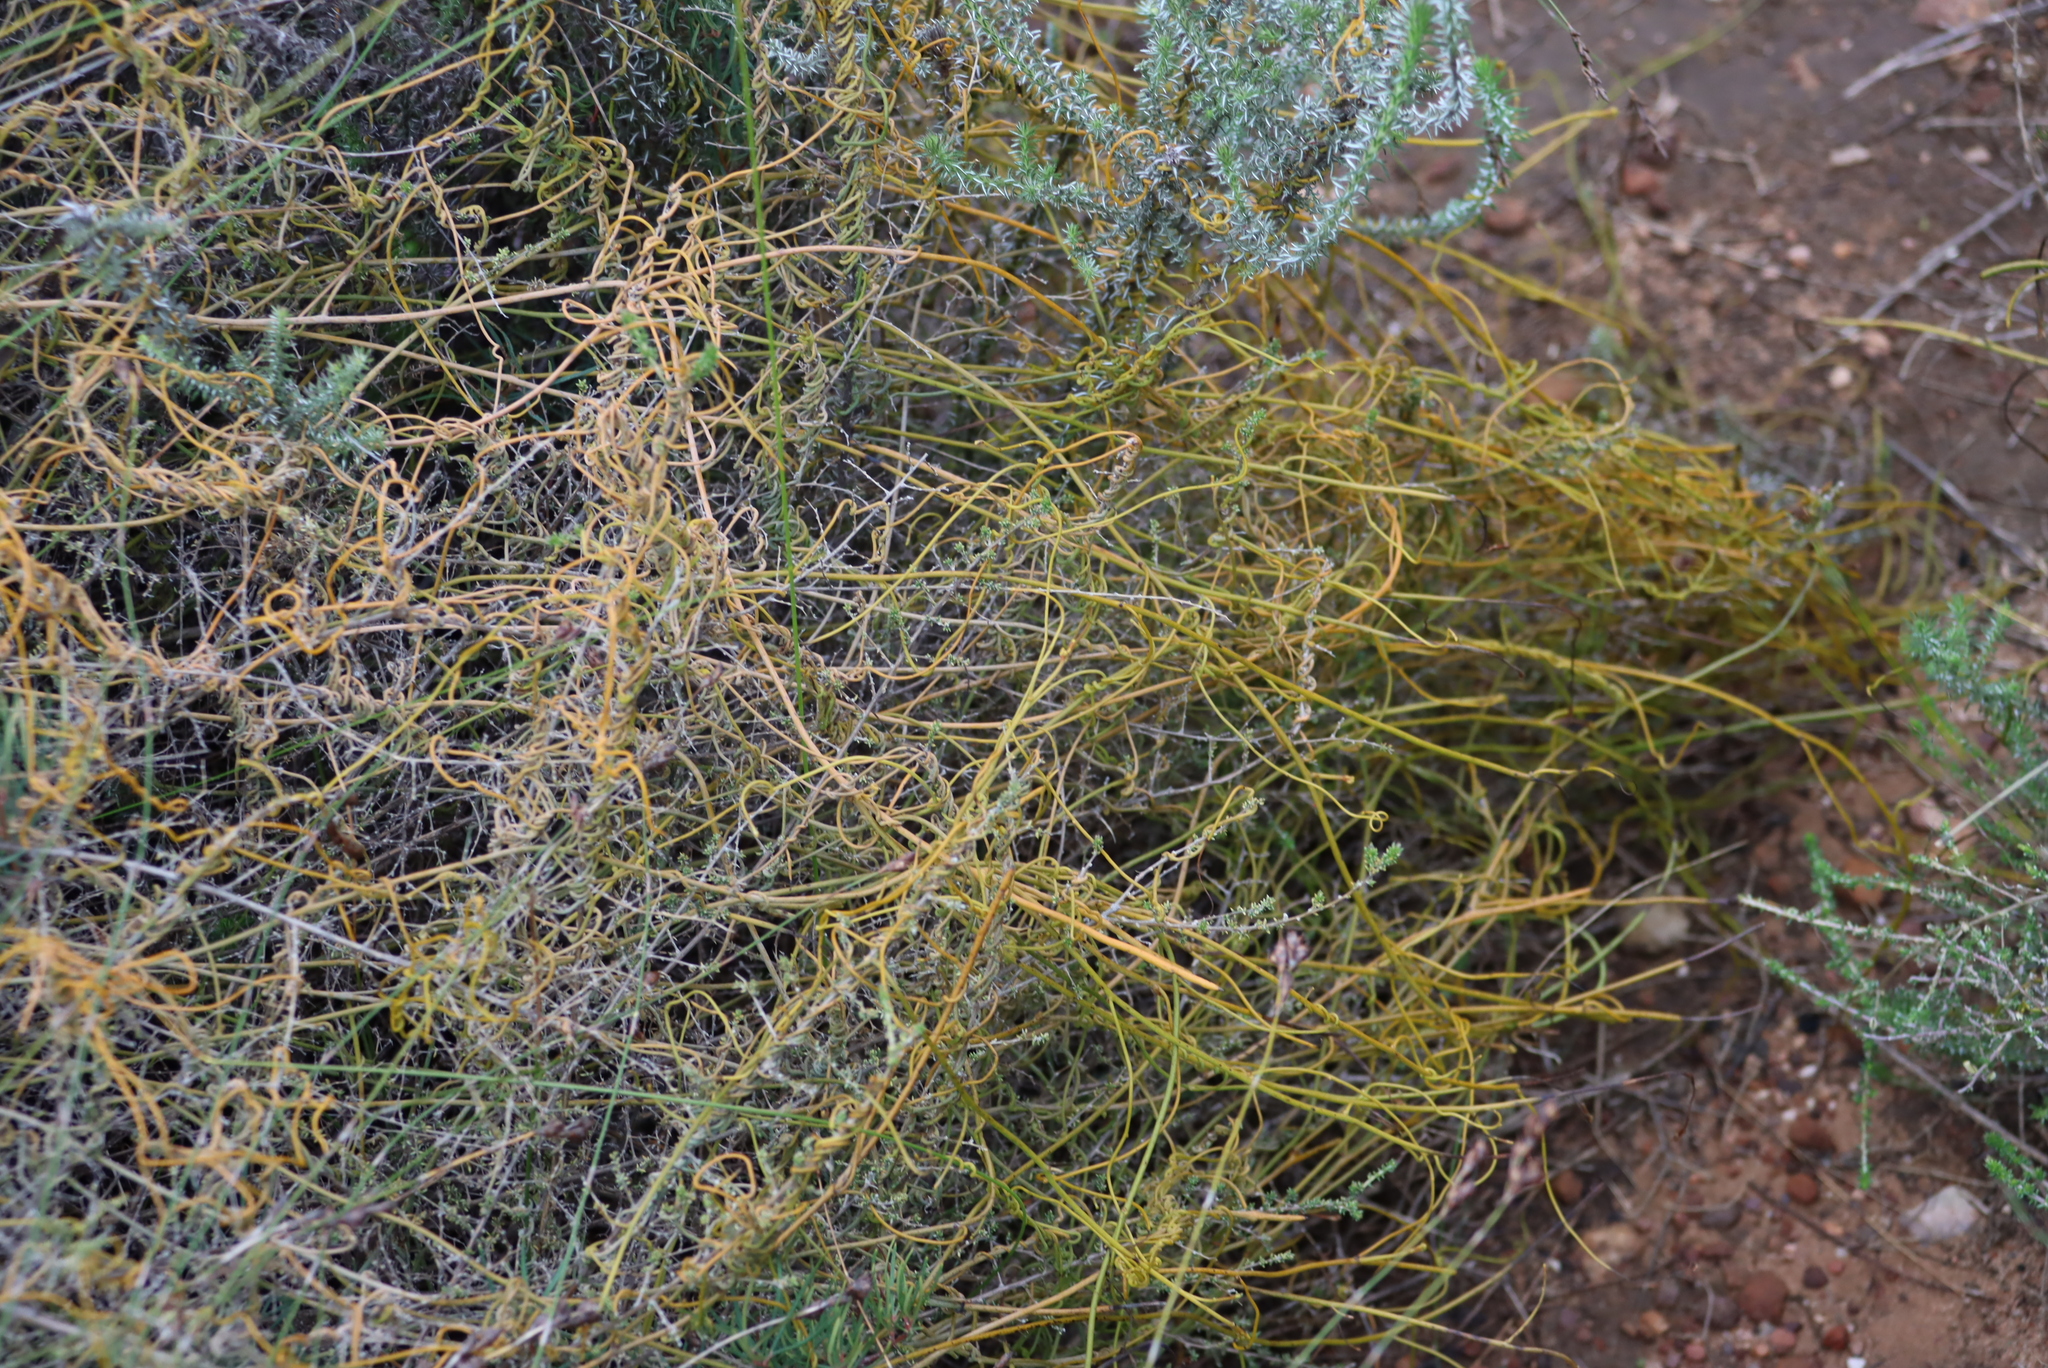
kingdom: Plantae
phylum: Tracheophyta
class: Magnoliopsida
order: Laurales
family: Lauraceae
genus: Cassytha
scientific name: Cassytha ciliolata
